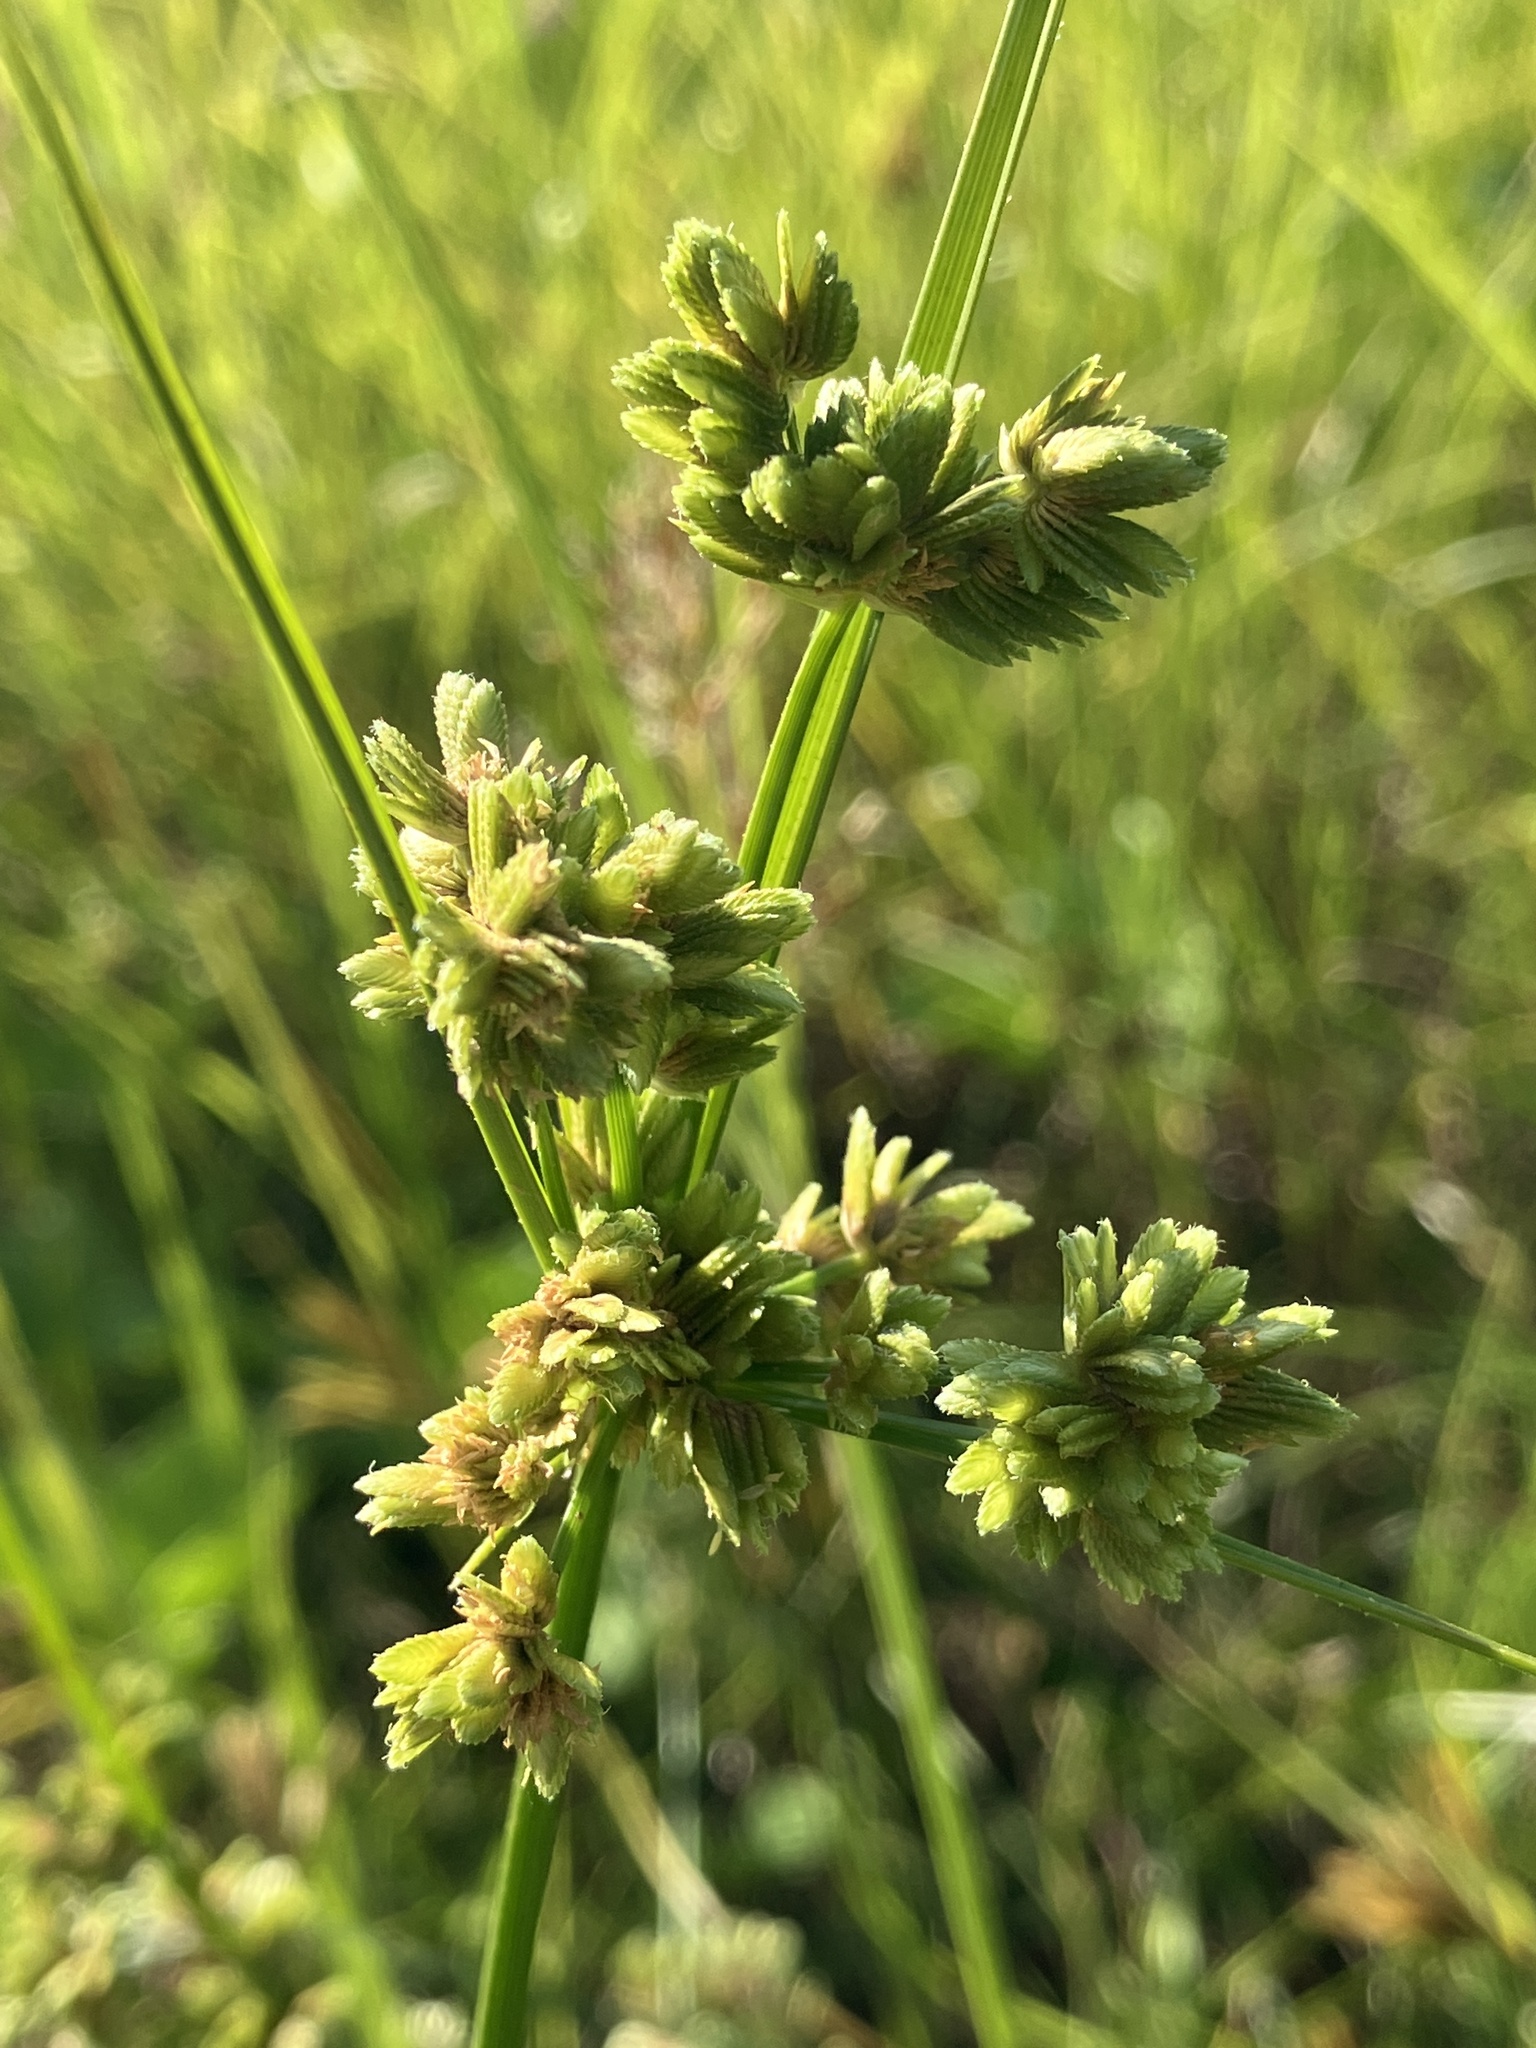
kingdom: Plantae
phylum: Tracheophyta
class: Liliopsida
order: Poales
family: Cyperaceae
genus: Cyperus
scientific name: Cyperus eragrostis
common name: Tall flatsedge
